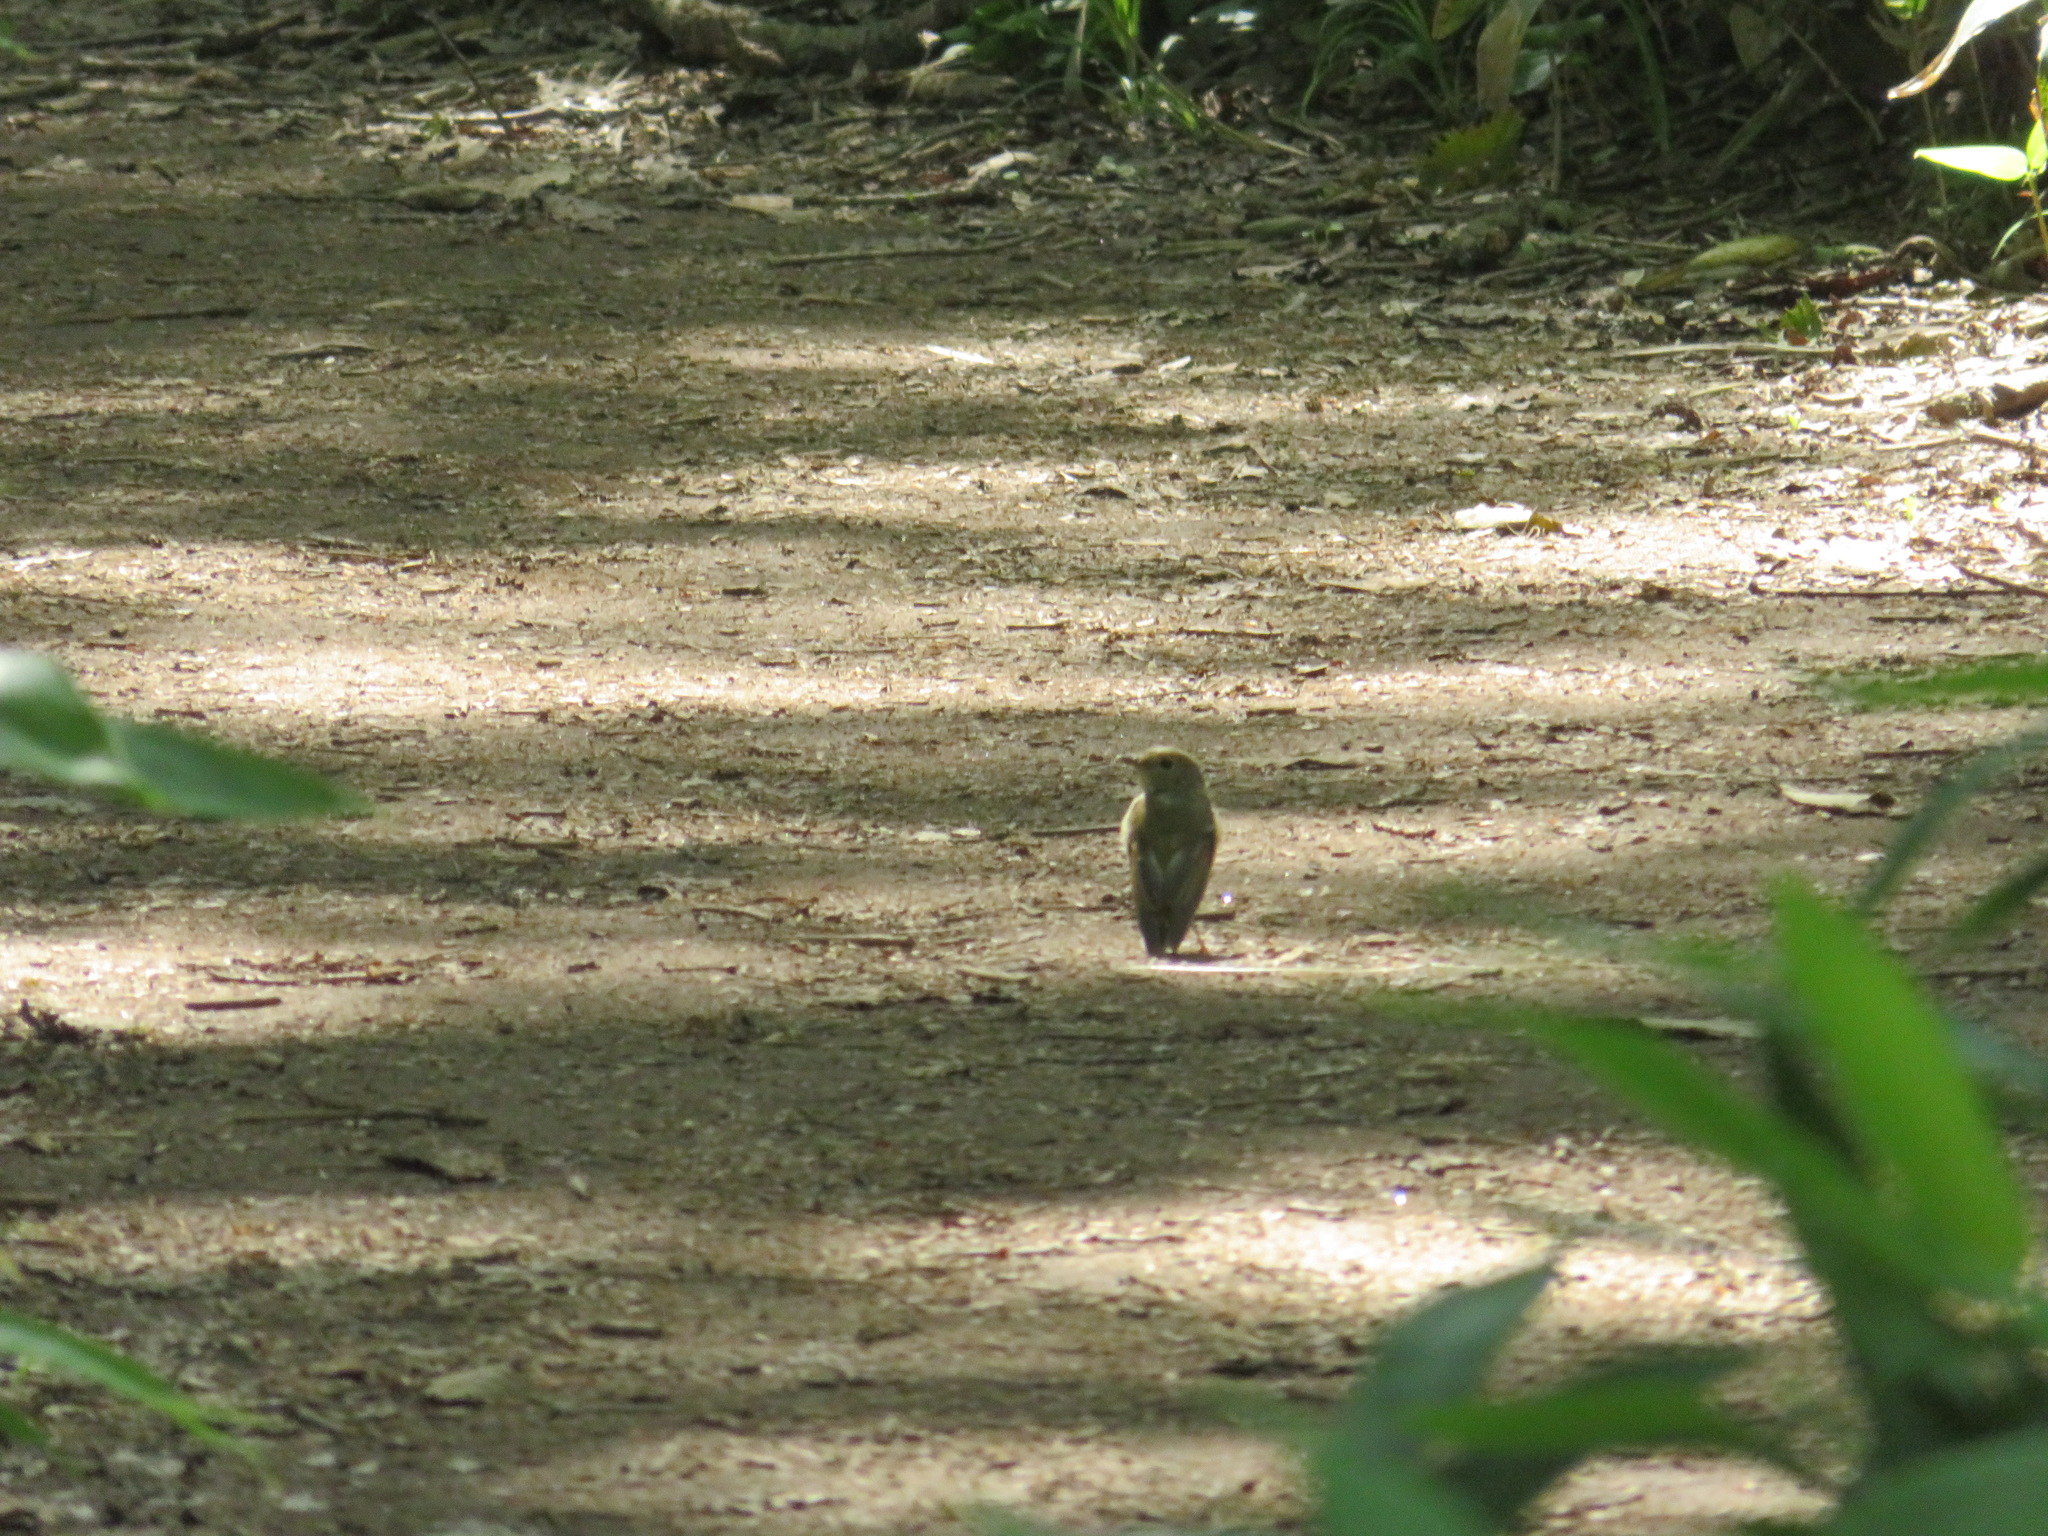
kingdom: Animalia
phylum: Chordata
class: Aves
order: Passeriformes
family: Cettiidae
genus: Horornis
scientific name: Horornis diphone
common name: Japanese bush warbler
